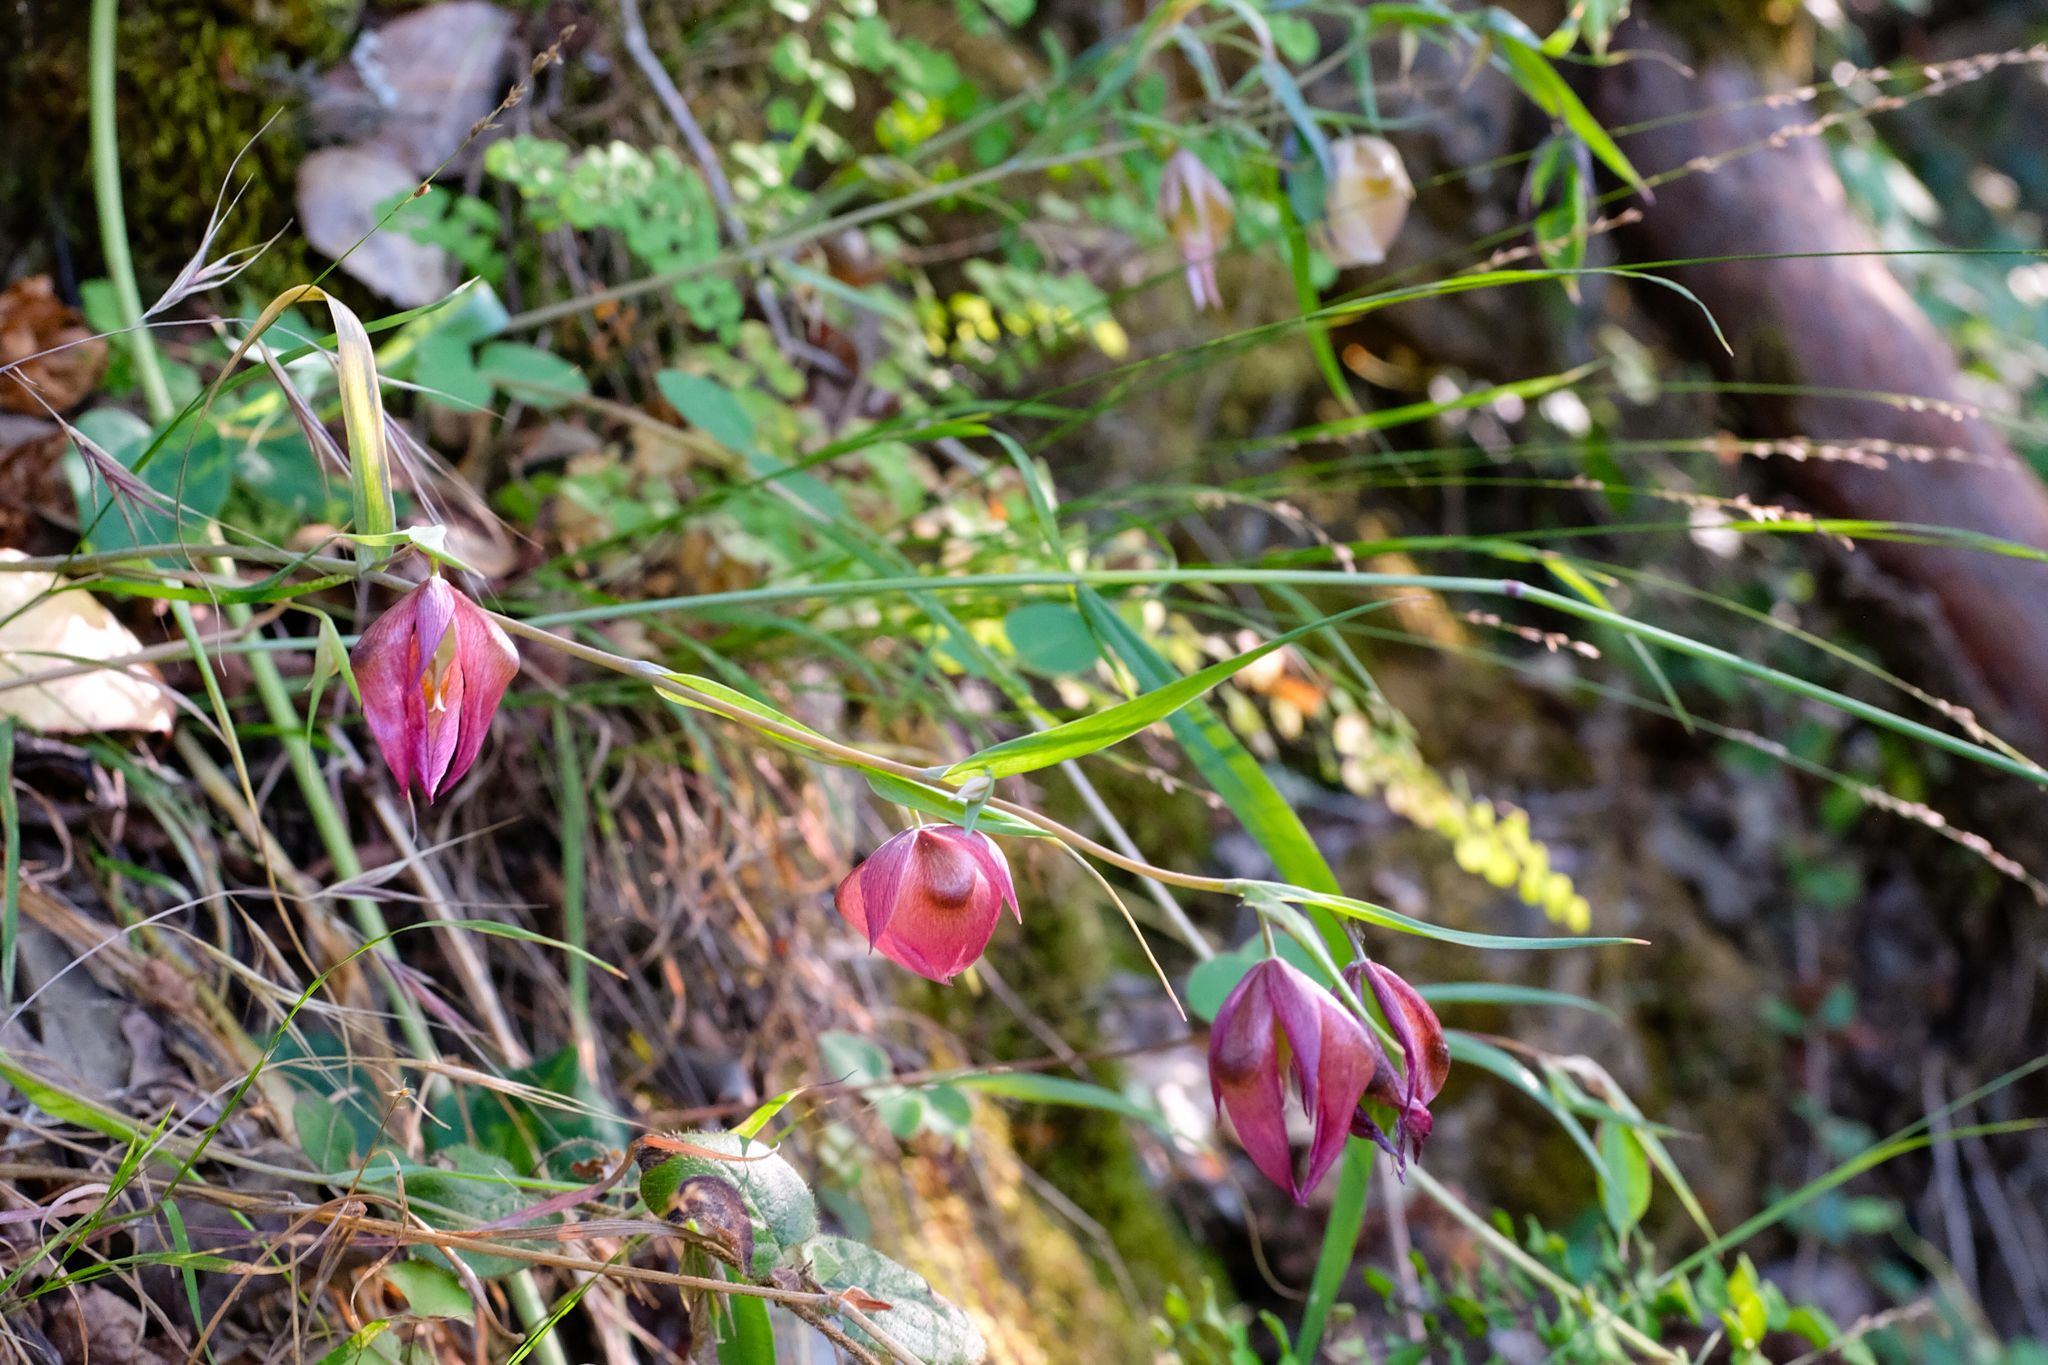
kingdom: Plantae
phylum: Tracheophyta
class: Liliopsida
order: Liliales
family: Liliaceae
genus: Calochortus
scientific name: Calochortus albus
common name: Fairy-lantern
